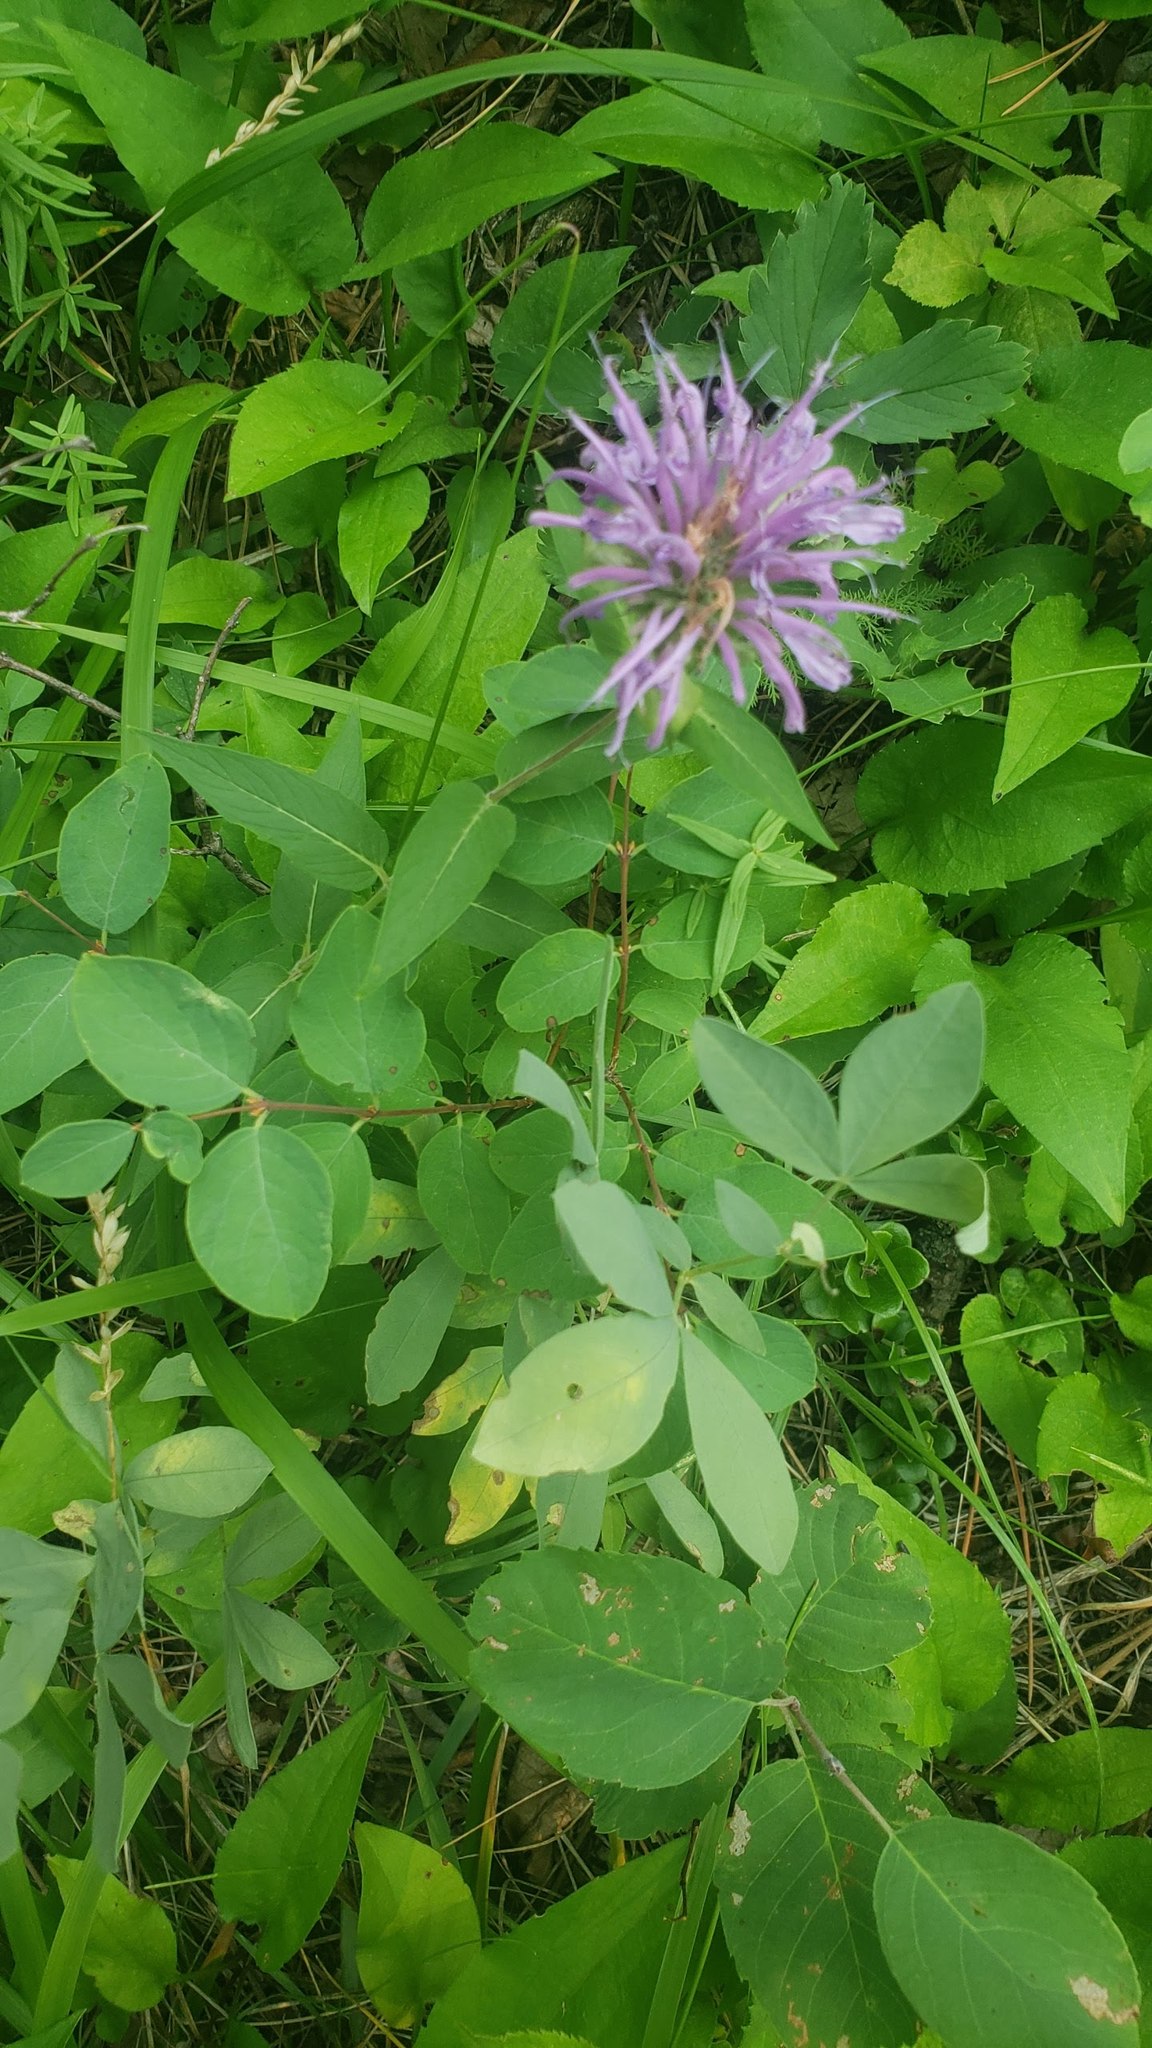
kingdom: Plantae
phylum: Tracheophyta
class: Magnoliopsida
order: Lamiales
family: Lamiaceae
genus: Monarda
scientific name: Monarda fistulosa
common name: Purple beebalm
